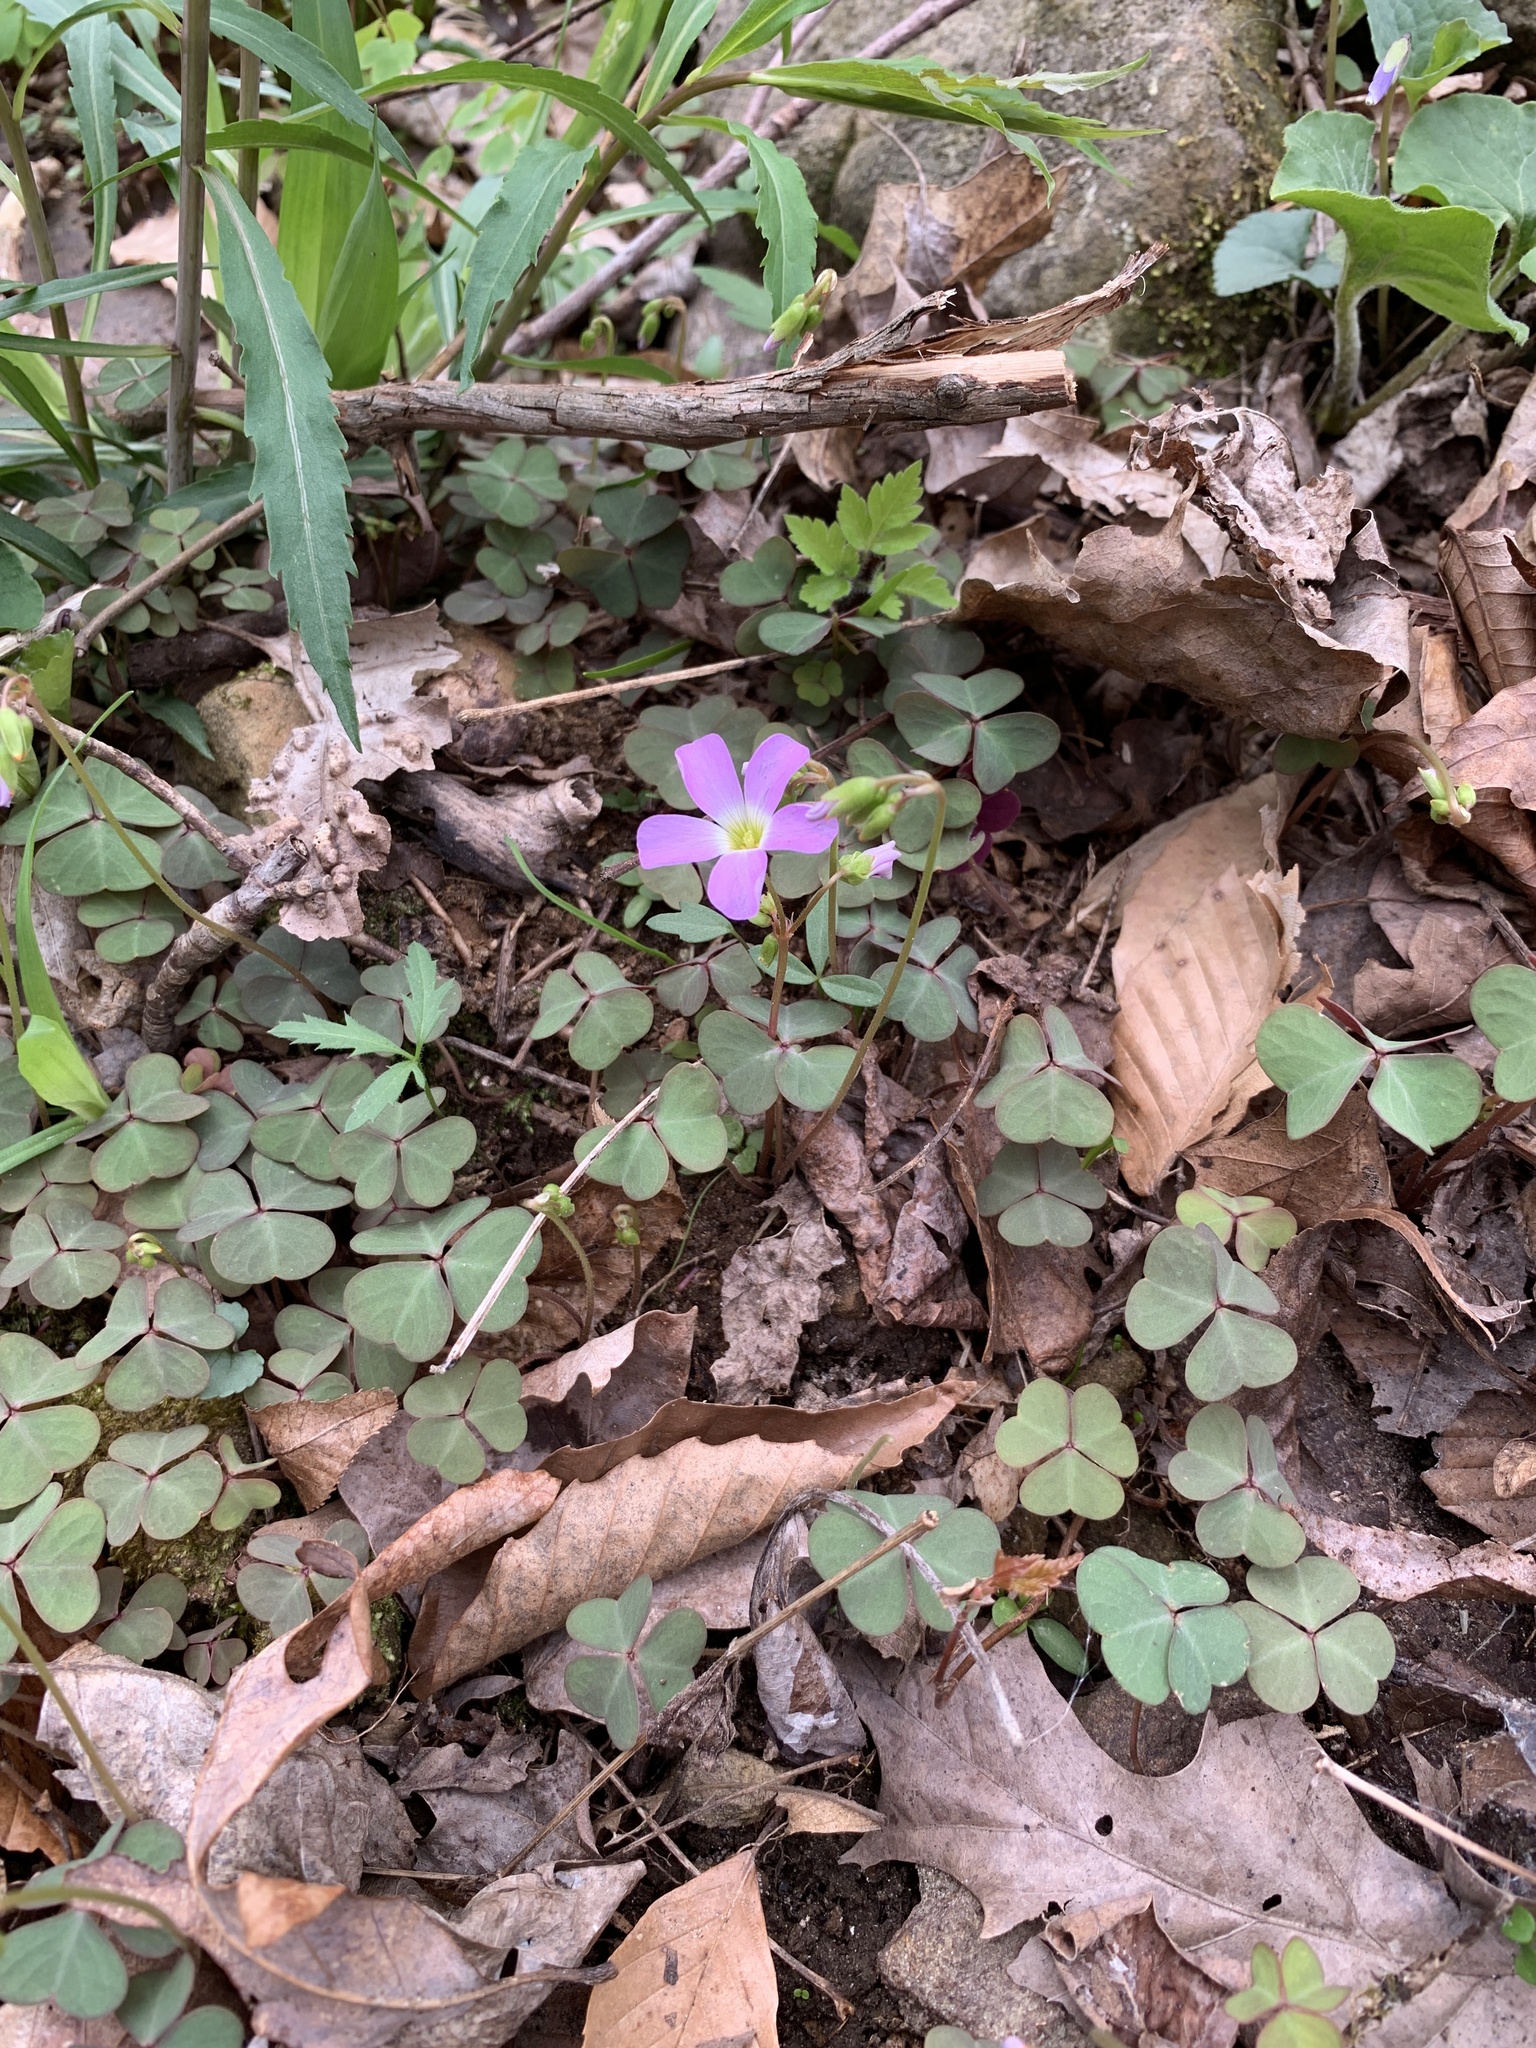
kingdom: Plantae
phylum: Tracheophyta
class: Magnoliopsida
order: Oxalidales
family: Oxalidaceae
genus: Oxalis
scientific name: Oxalis violacea
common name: Violet wood-sorrel
